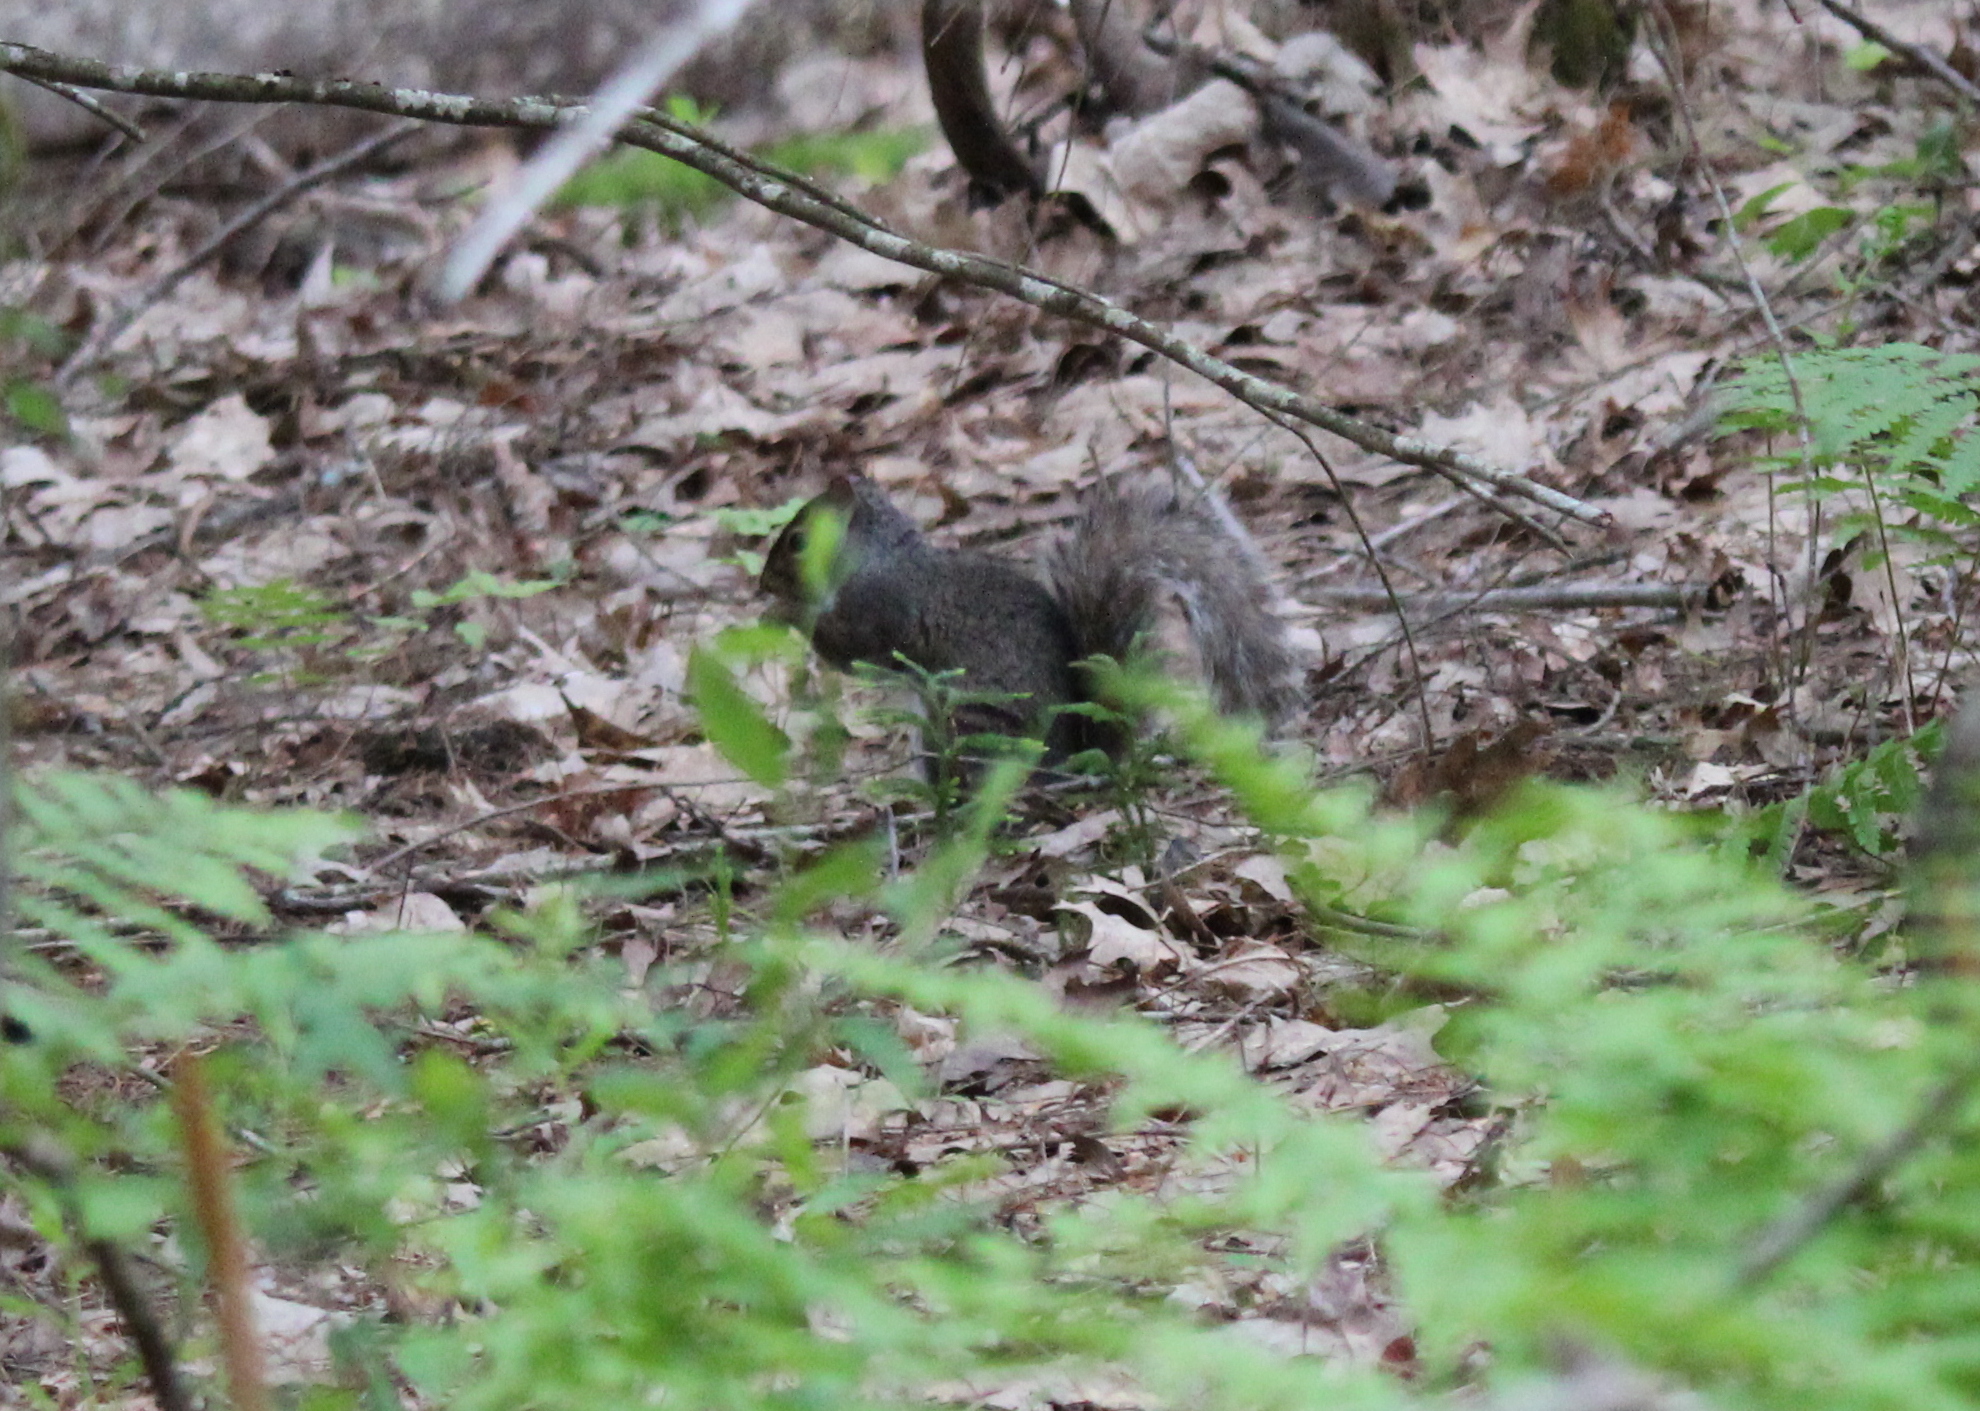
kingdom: Animalia
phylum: Chordata
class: Mammalia
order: Rodentia
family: Sciuridae
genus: Sciurus
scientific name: Sciurus carolinensis
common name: Eastern gray squirrel
